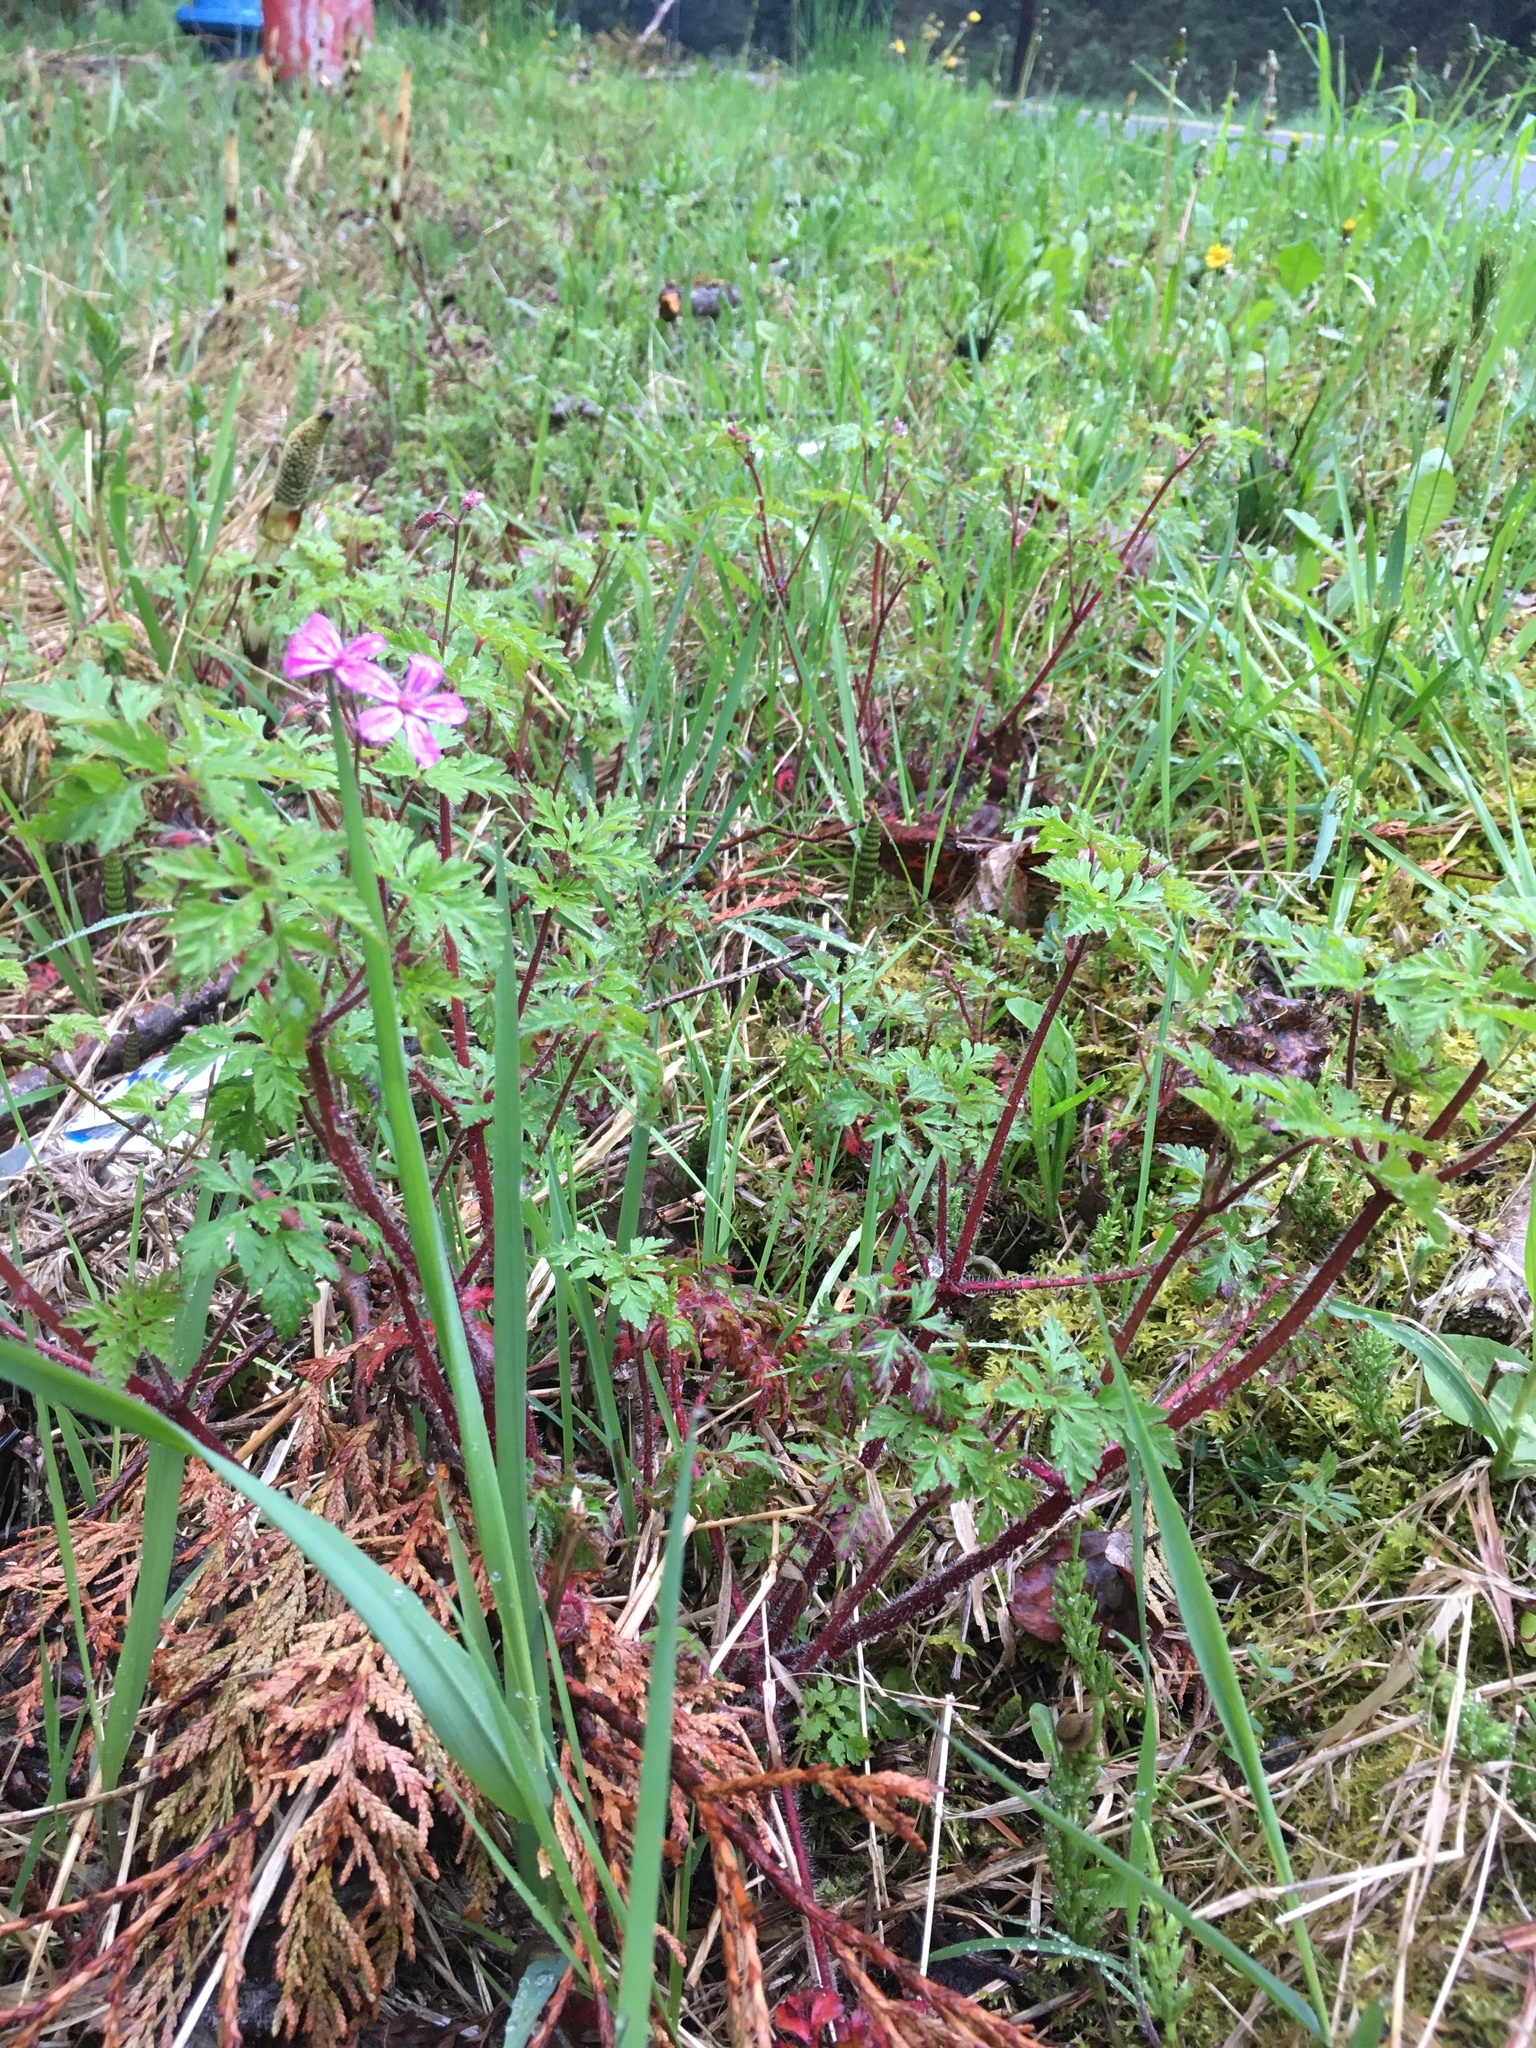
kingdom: Plantae
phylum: Tracheophyta
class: Magnoliopsida
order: Geraniales
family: Geraniaceae
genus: Geranium
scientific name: Geranium robertianum
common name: Herb-robert
